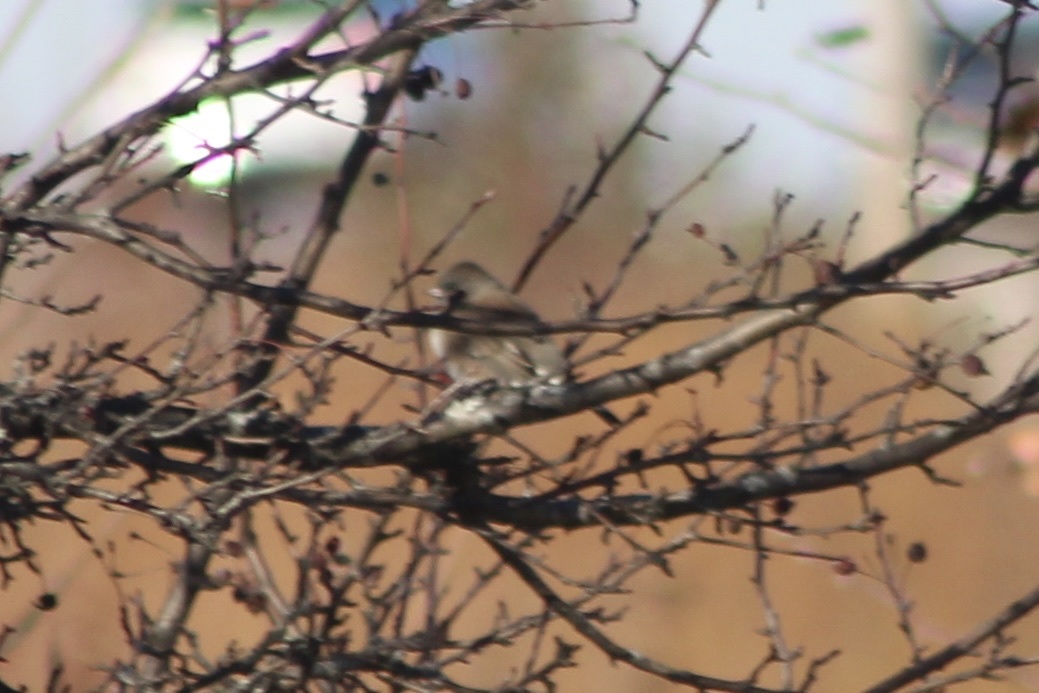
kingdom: Animalia
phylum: Chordata
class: Aves
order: Passeriformes
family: Passerellidae
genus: Junco
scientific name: Junco hyemalis
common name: Dark-eyed junco
